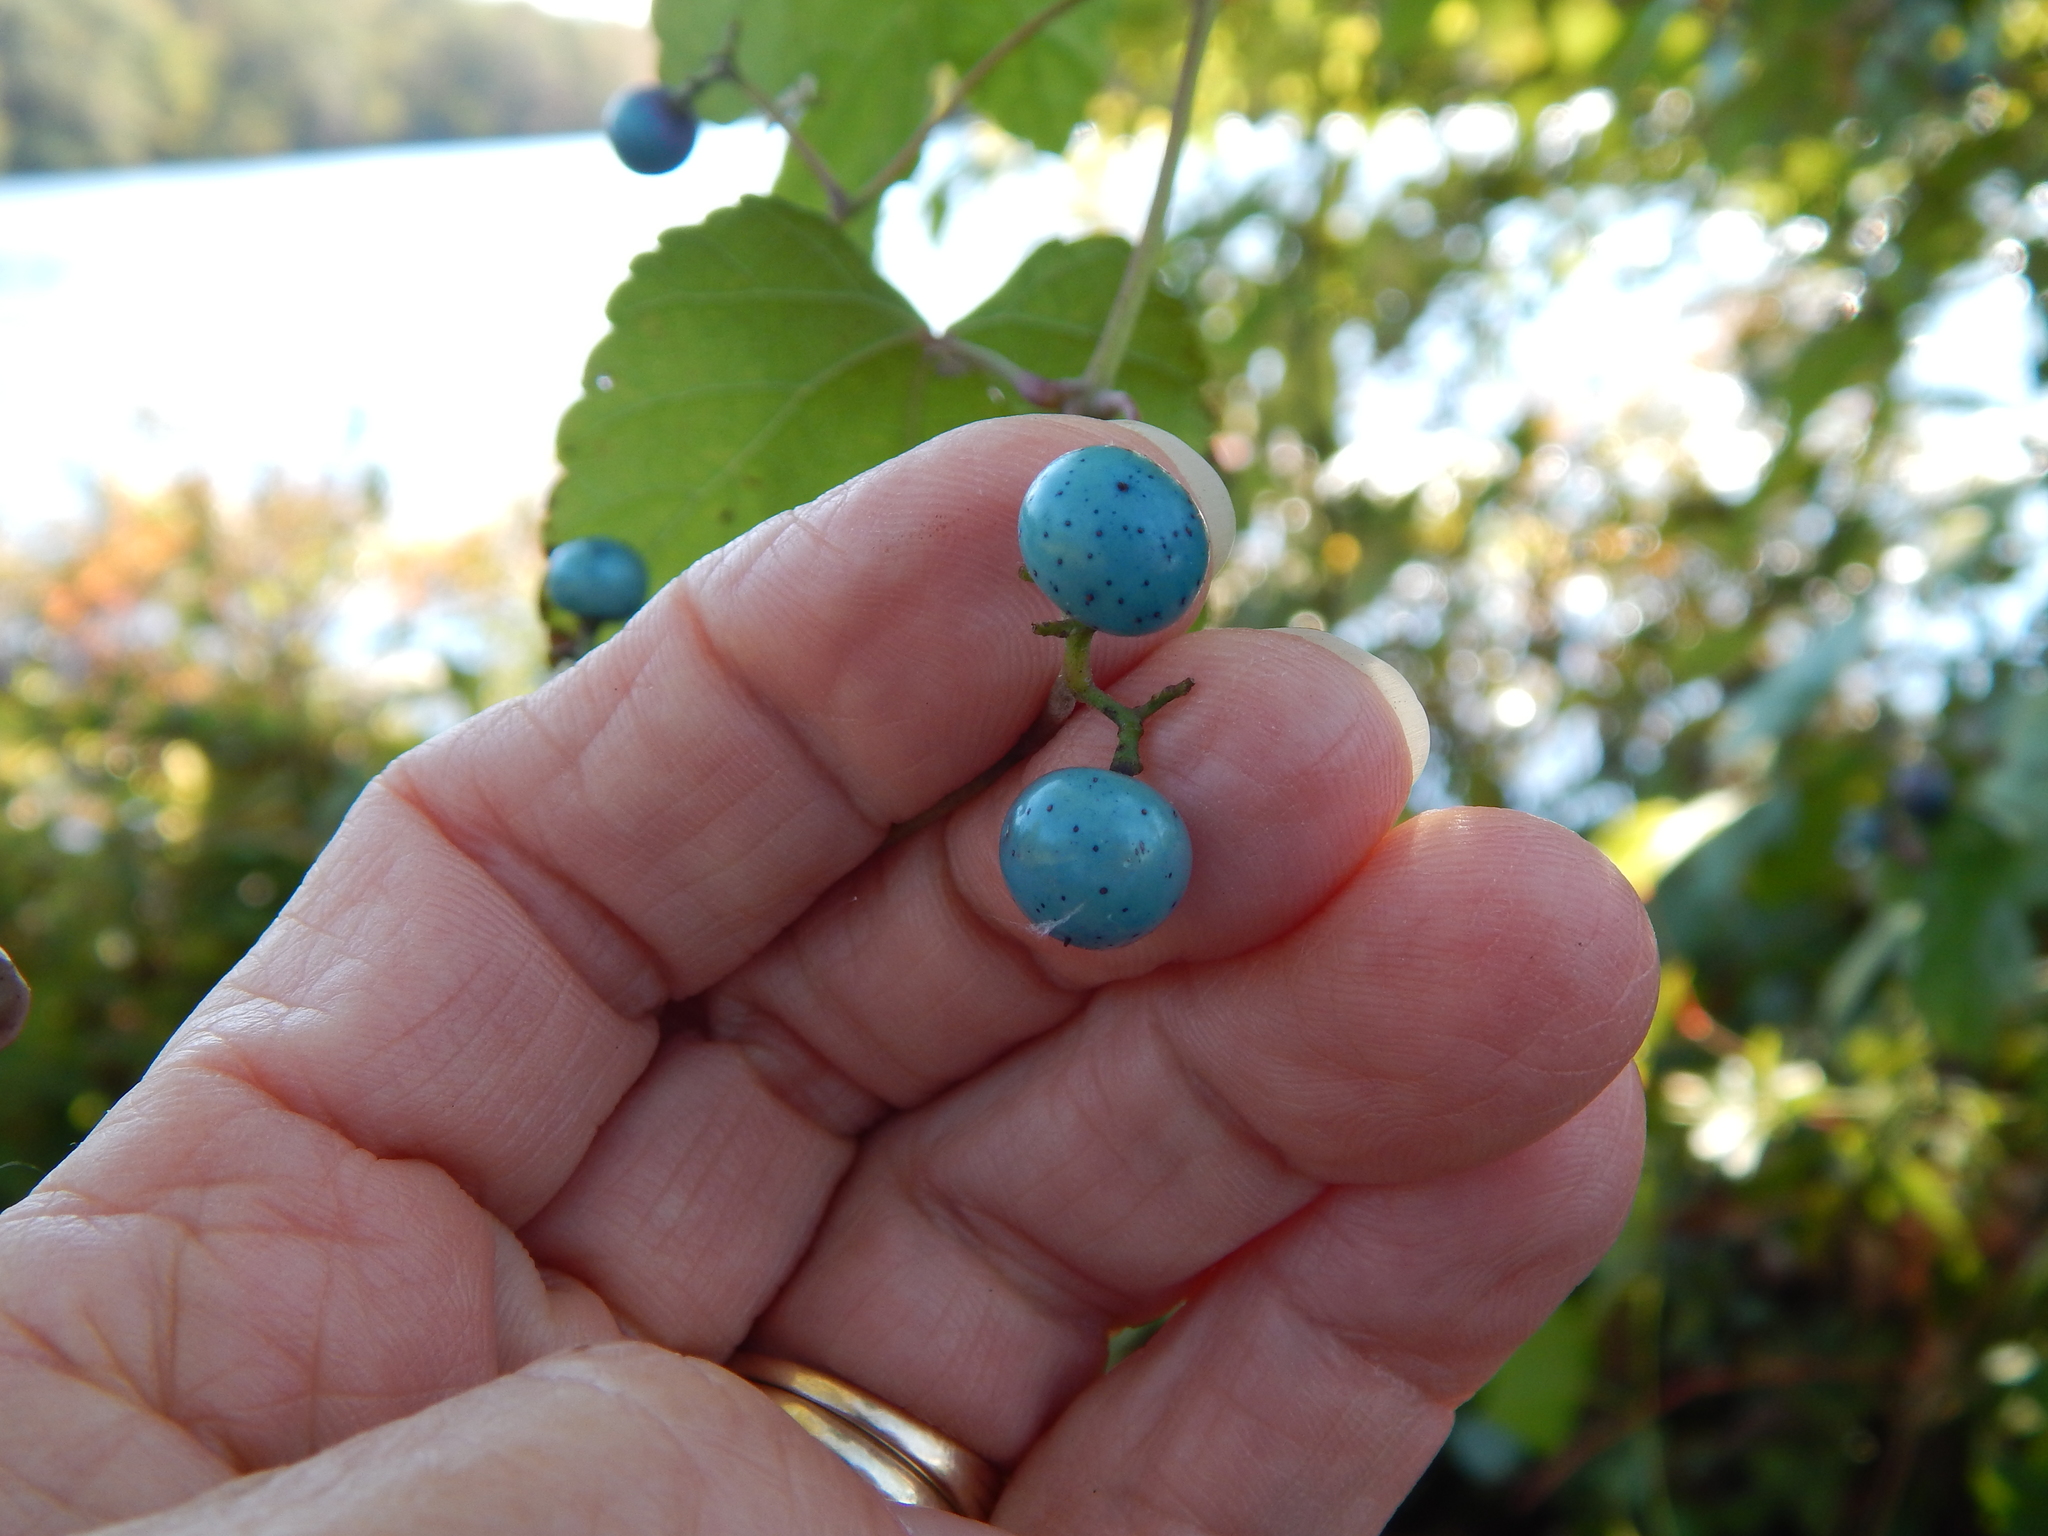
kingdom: Plantae
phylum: Tracheophyta
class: Magnoliopsida
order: Vitales
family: Vitaceae
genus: Ampelopsis
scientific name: Ampelopsis glandulosa
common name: Amur peppervine
